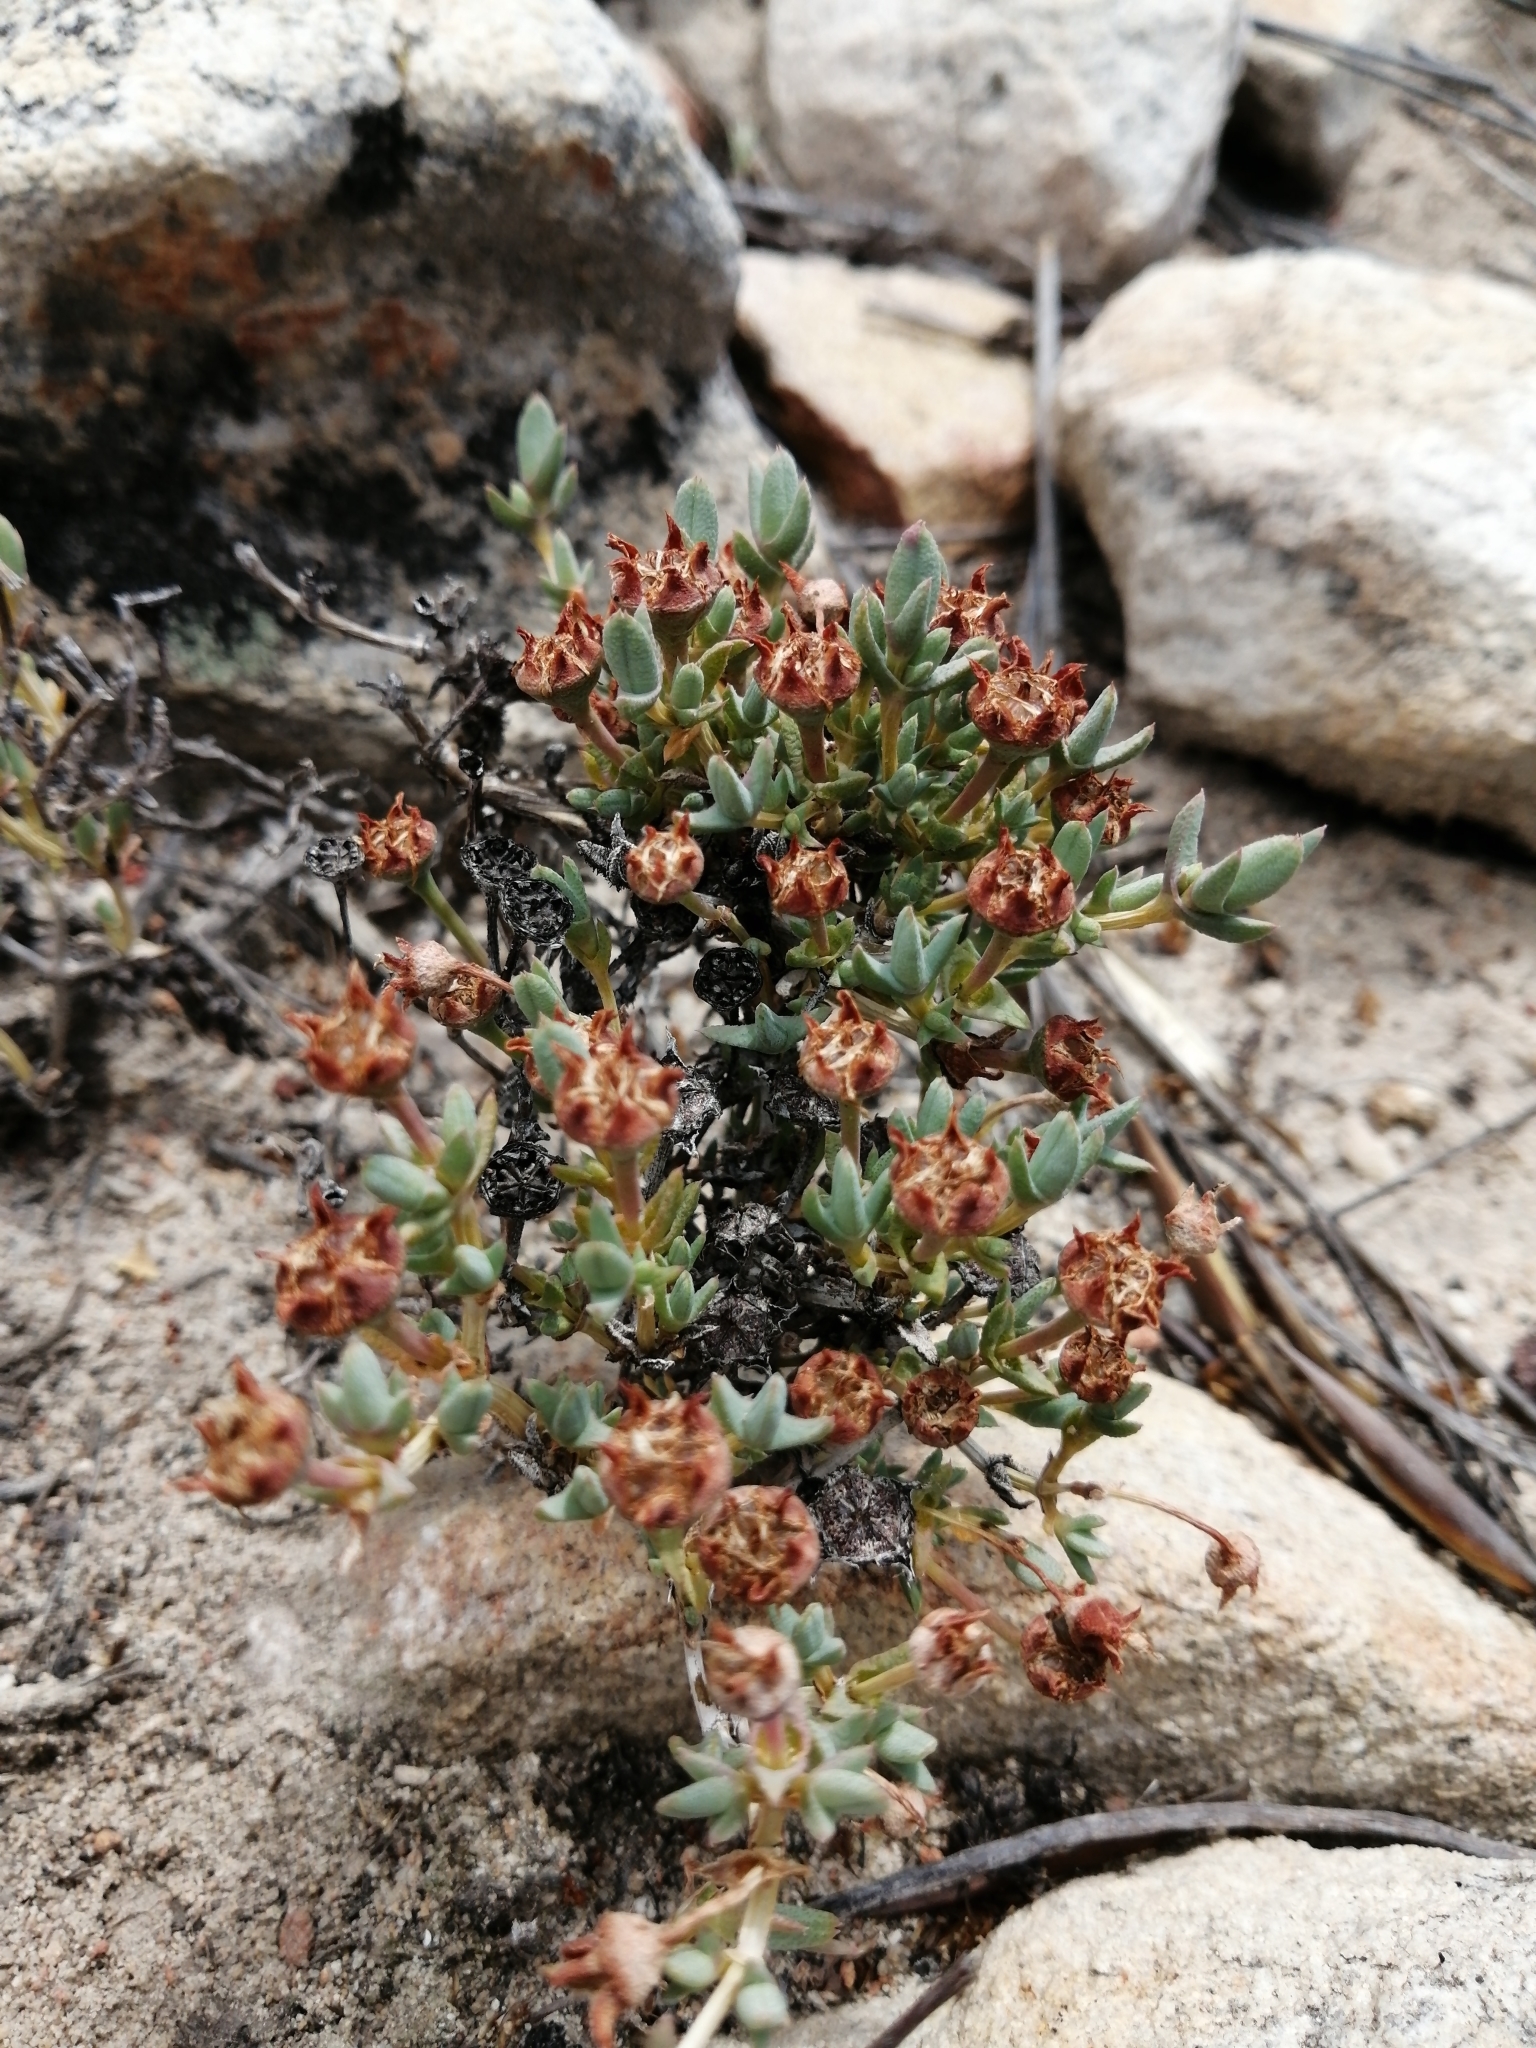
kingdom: Plantae
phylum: Tracheophyta
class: Magnoliopsida
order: Caryophyllales
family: Aizoaceae
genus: Antimima
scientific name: Antimima verruculosa
